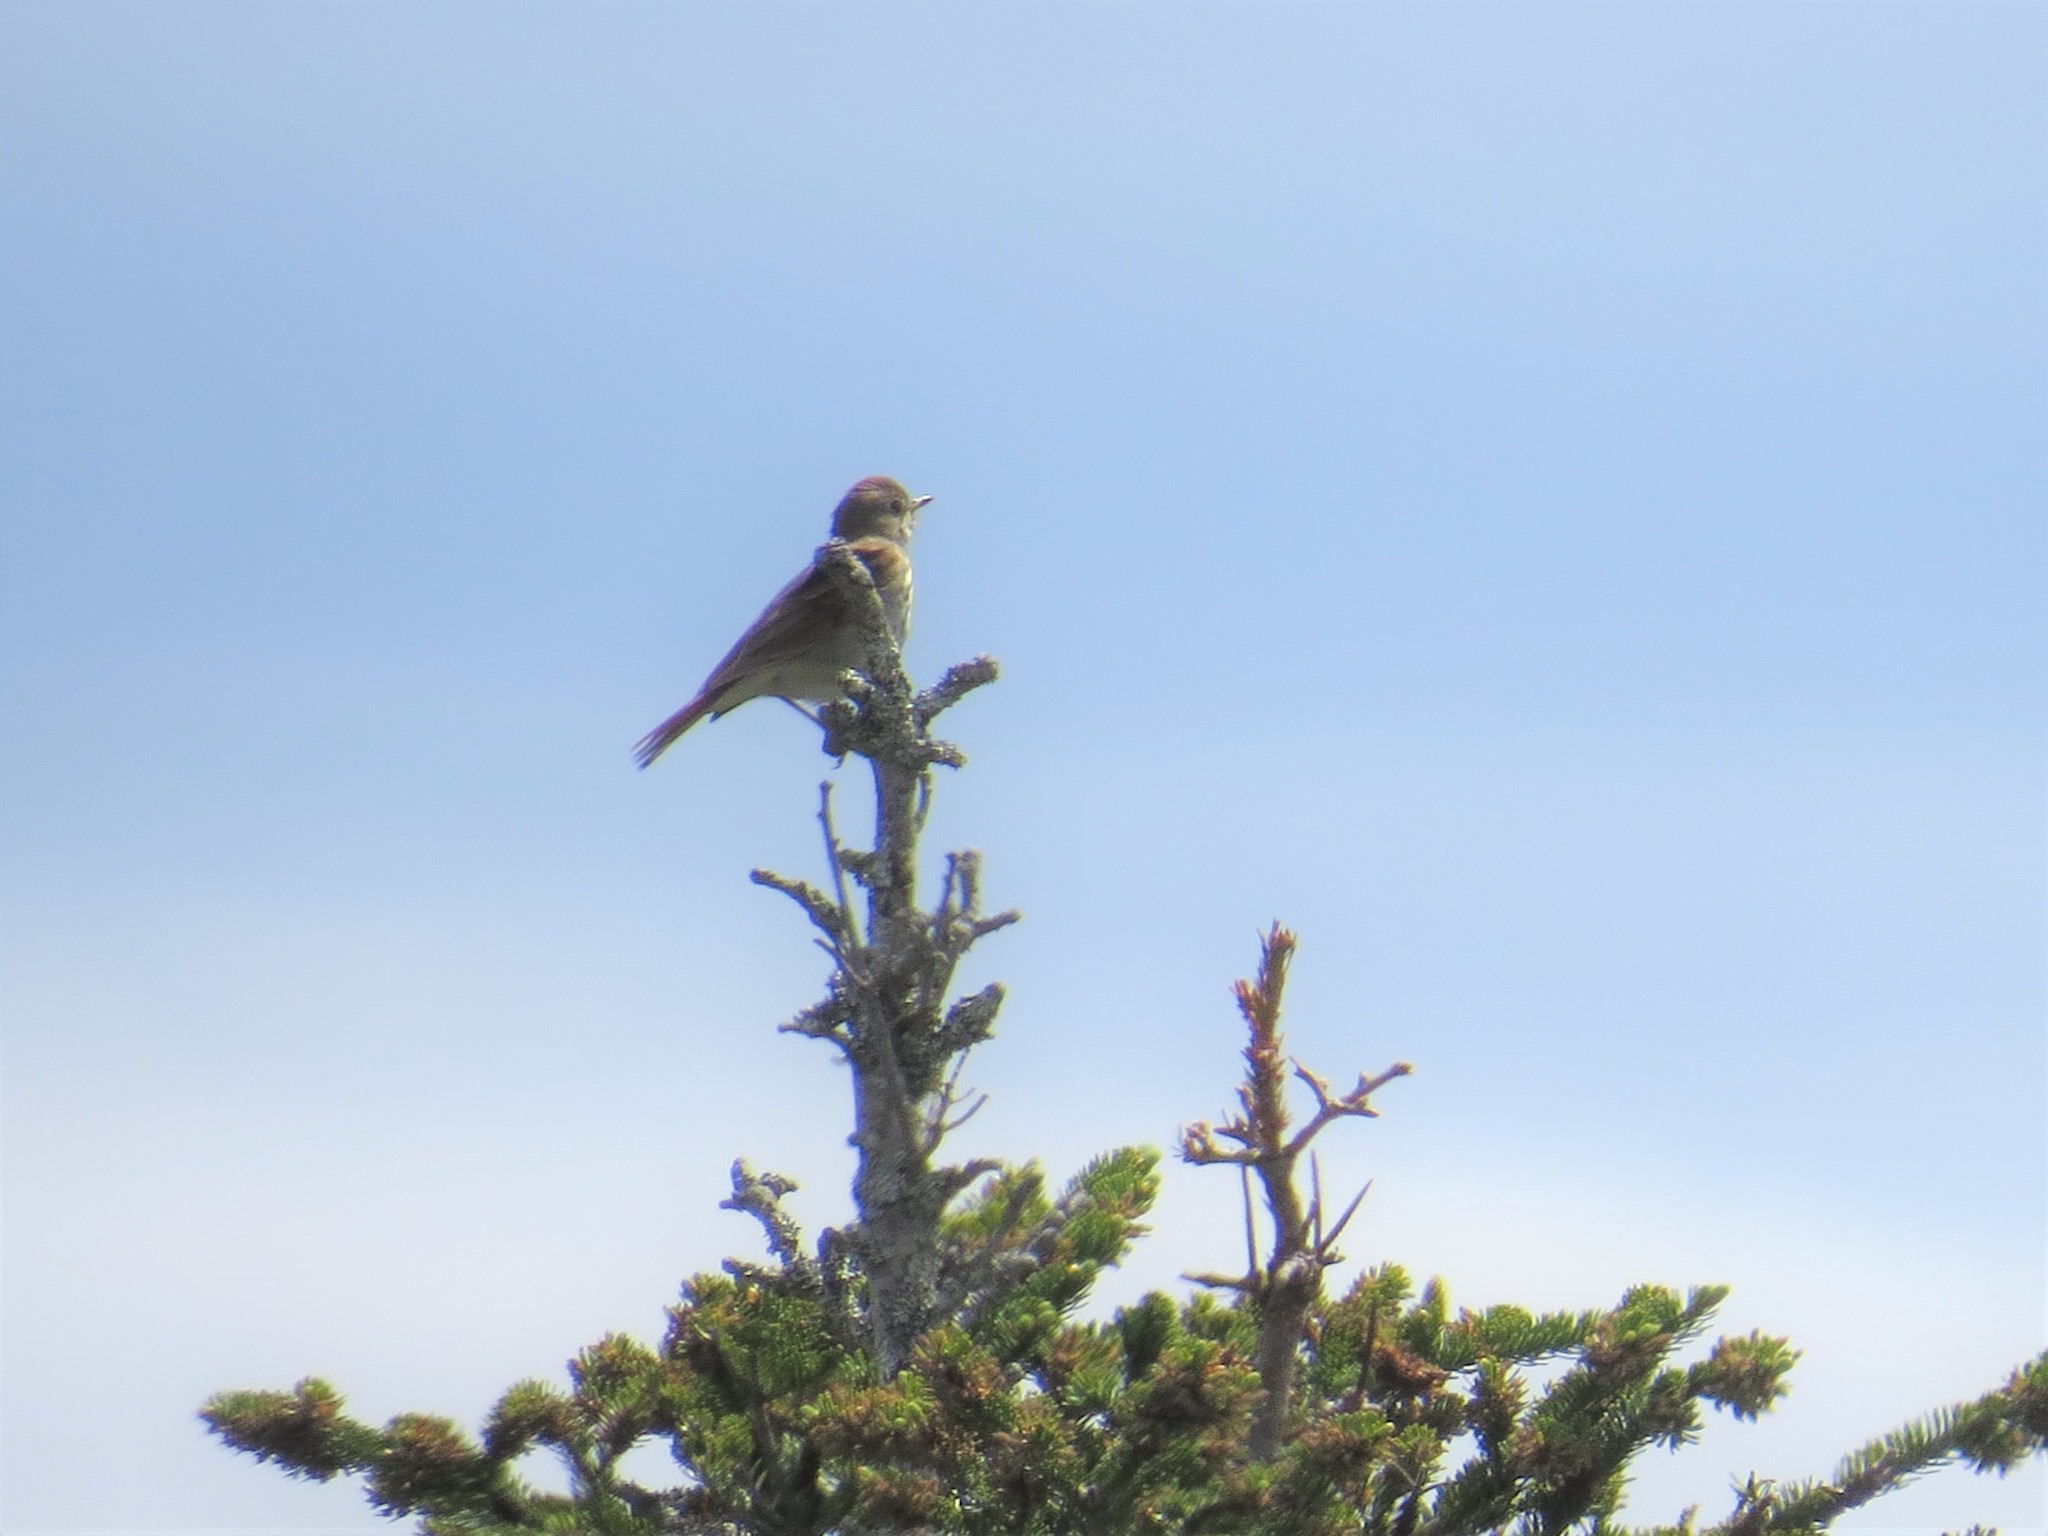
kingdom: Animalia
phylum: Chordata
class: Aves
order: Passeriformes
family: Turdidae
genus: Catharus
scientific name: Catharus guttatus
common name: Hermit thrush
